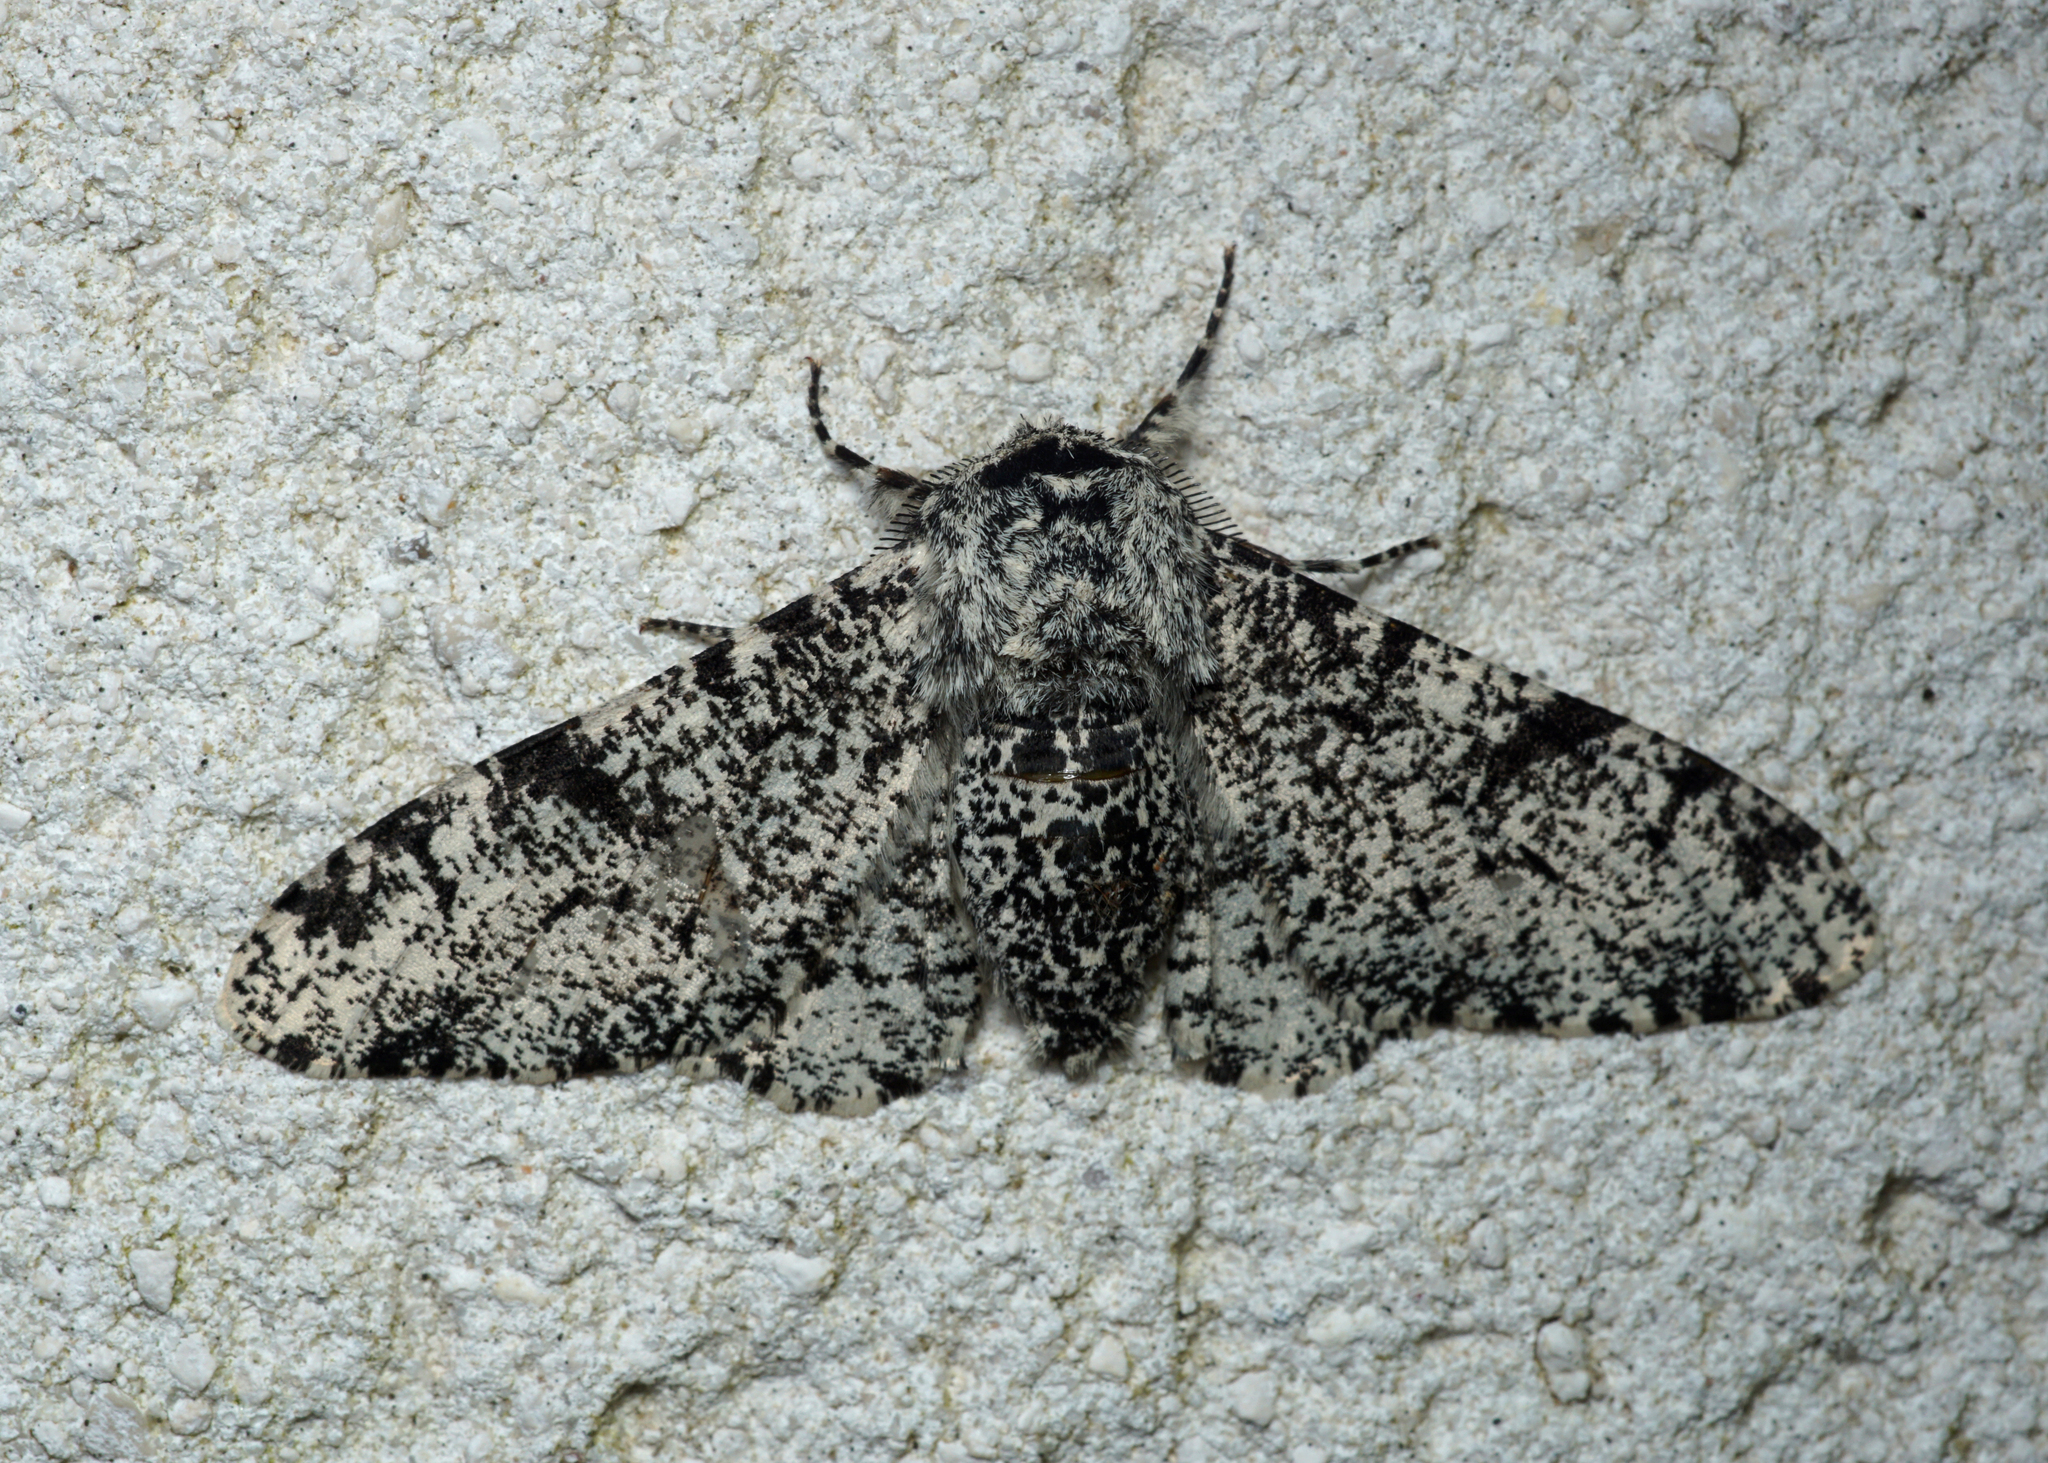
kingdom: Animalia
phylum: Arthropoda
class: Insecta
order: Lepidoptera
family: Geometridae
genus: Biston
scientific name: Biston betularia
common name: Peppered moth
